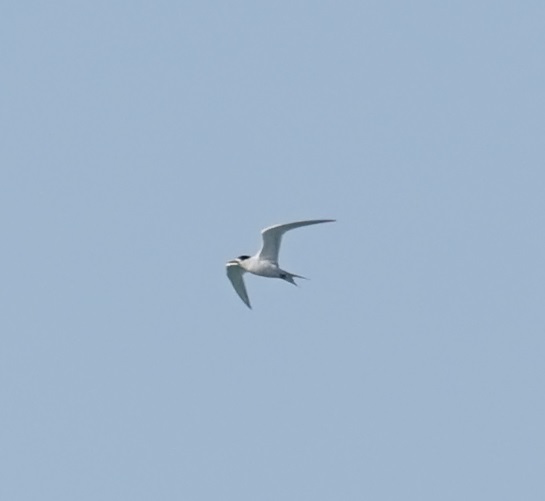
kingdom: Animalia
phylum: Chordata
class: Aves
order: Charadriiformes
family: Laridae
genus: Thalasseus
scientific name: Thalasseus bergii
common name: Greater crested tern
